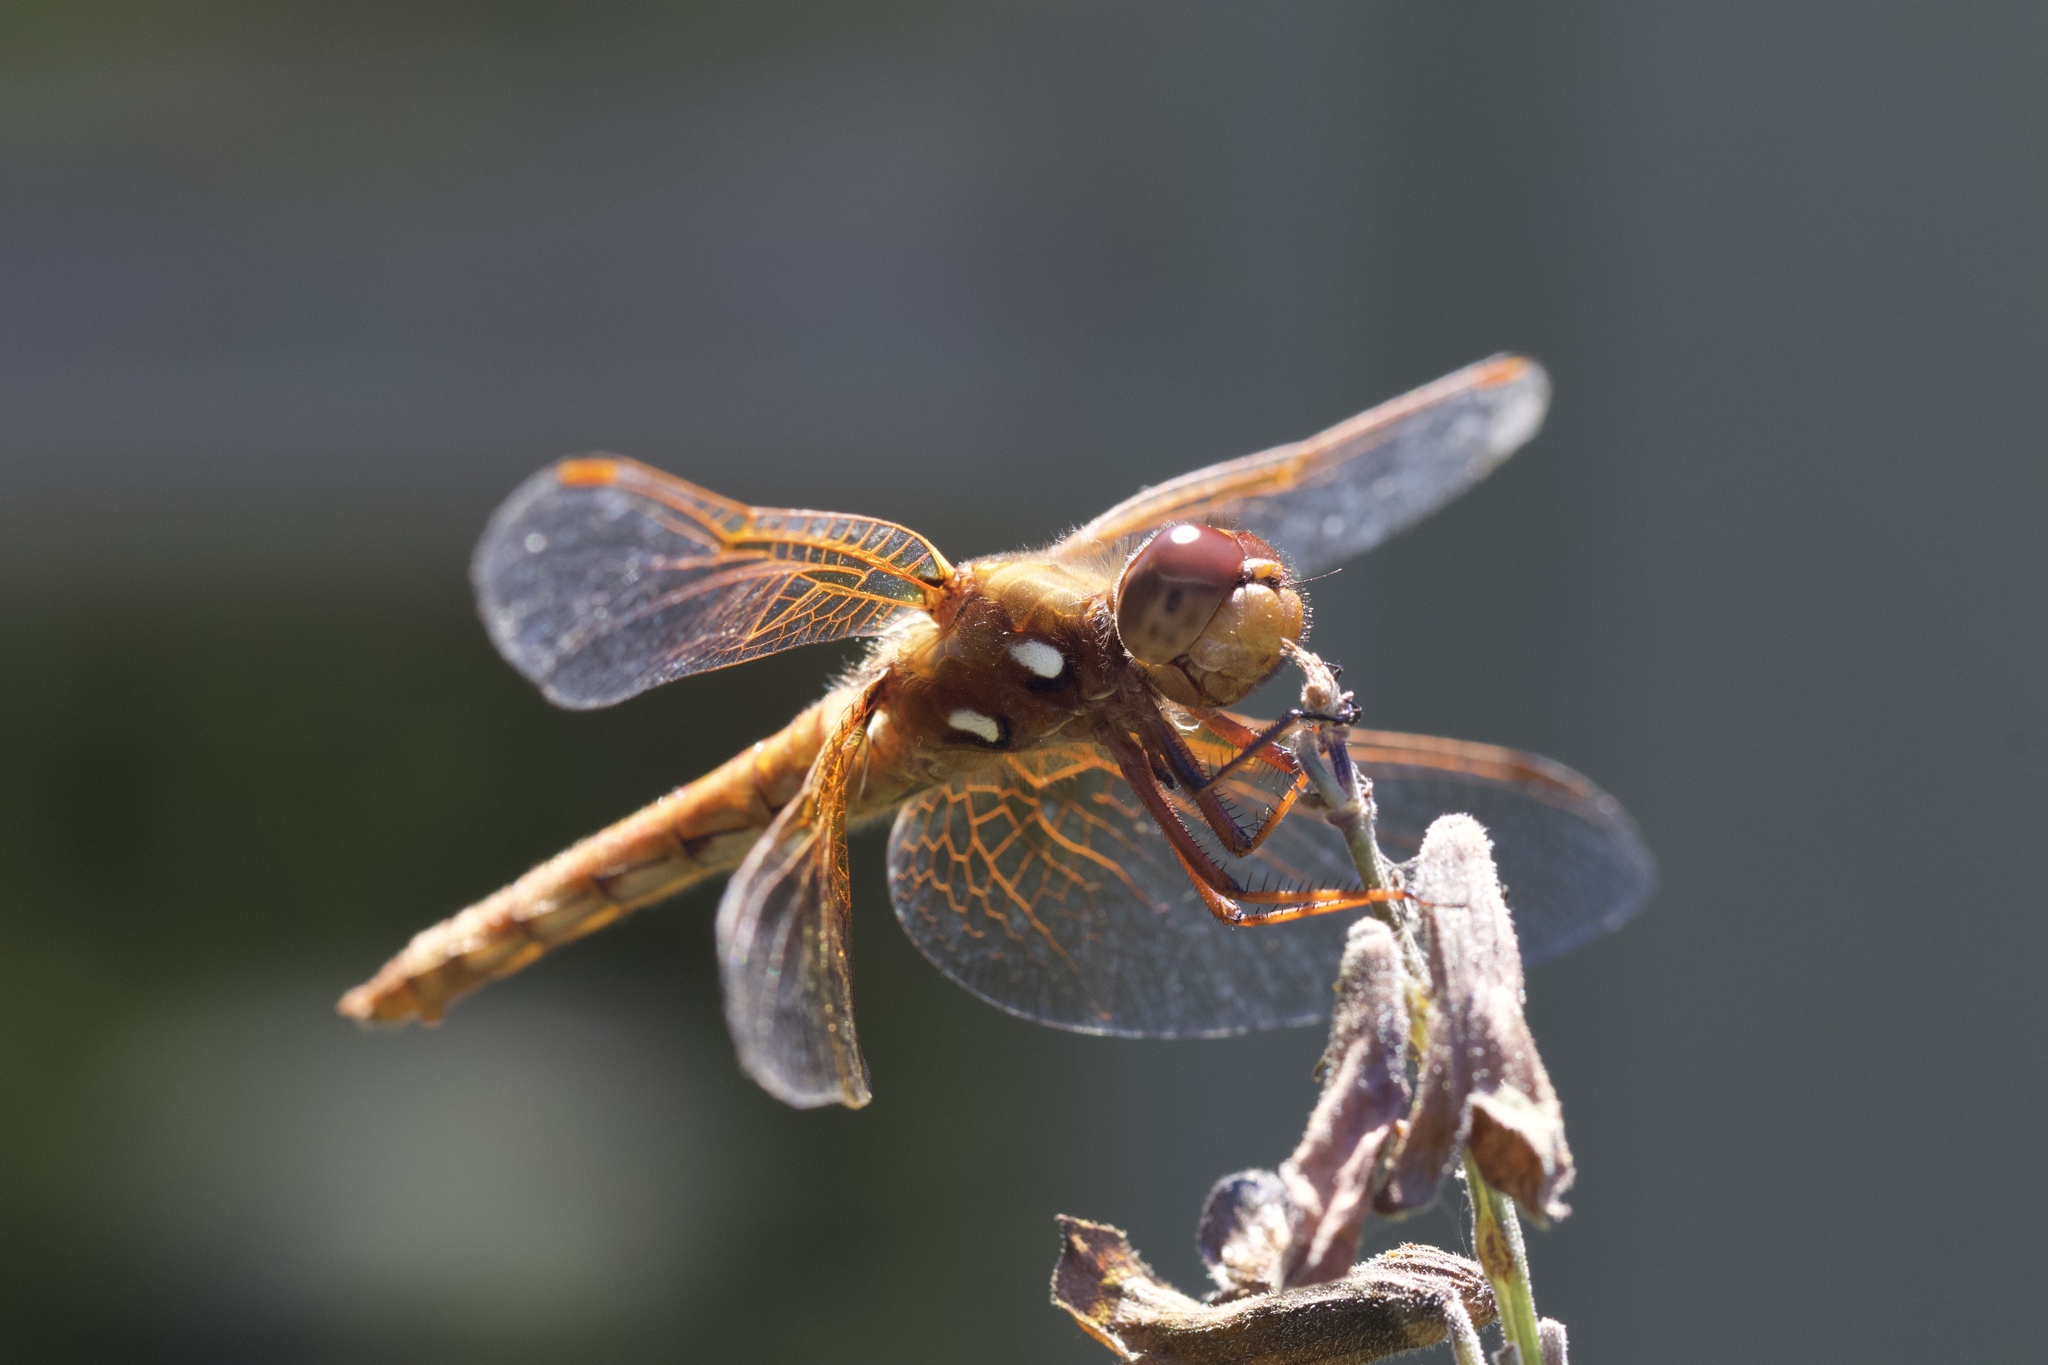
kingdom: Animalia
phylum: Arthropoda
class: Insecta
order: Odonata
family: Libellulidae
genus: Sympetrum
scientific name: Sympetrum illotum
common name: Cardinal meadowhawk
